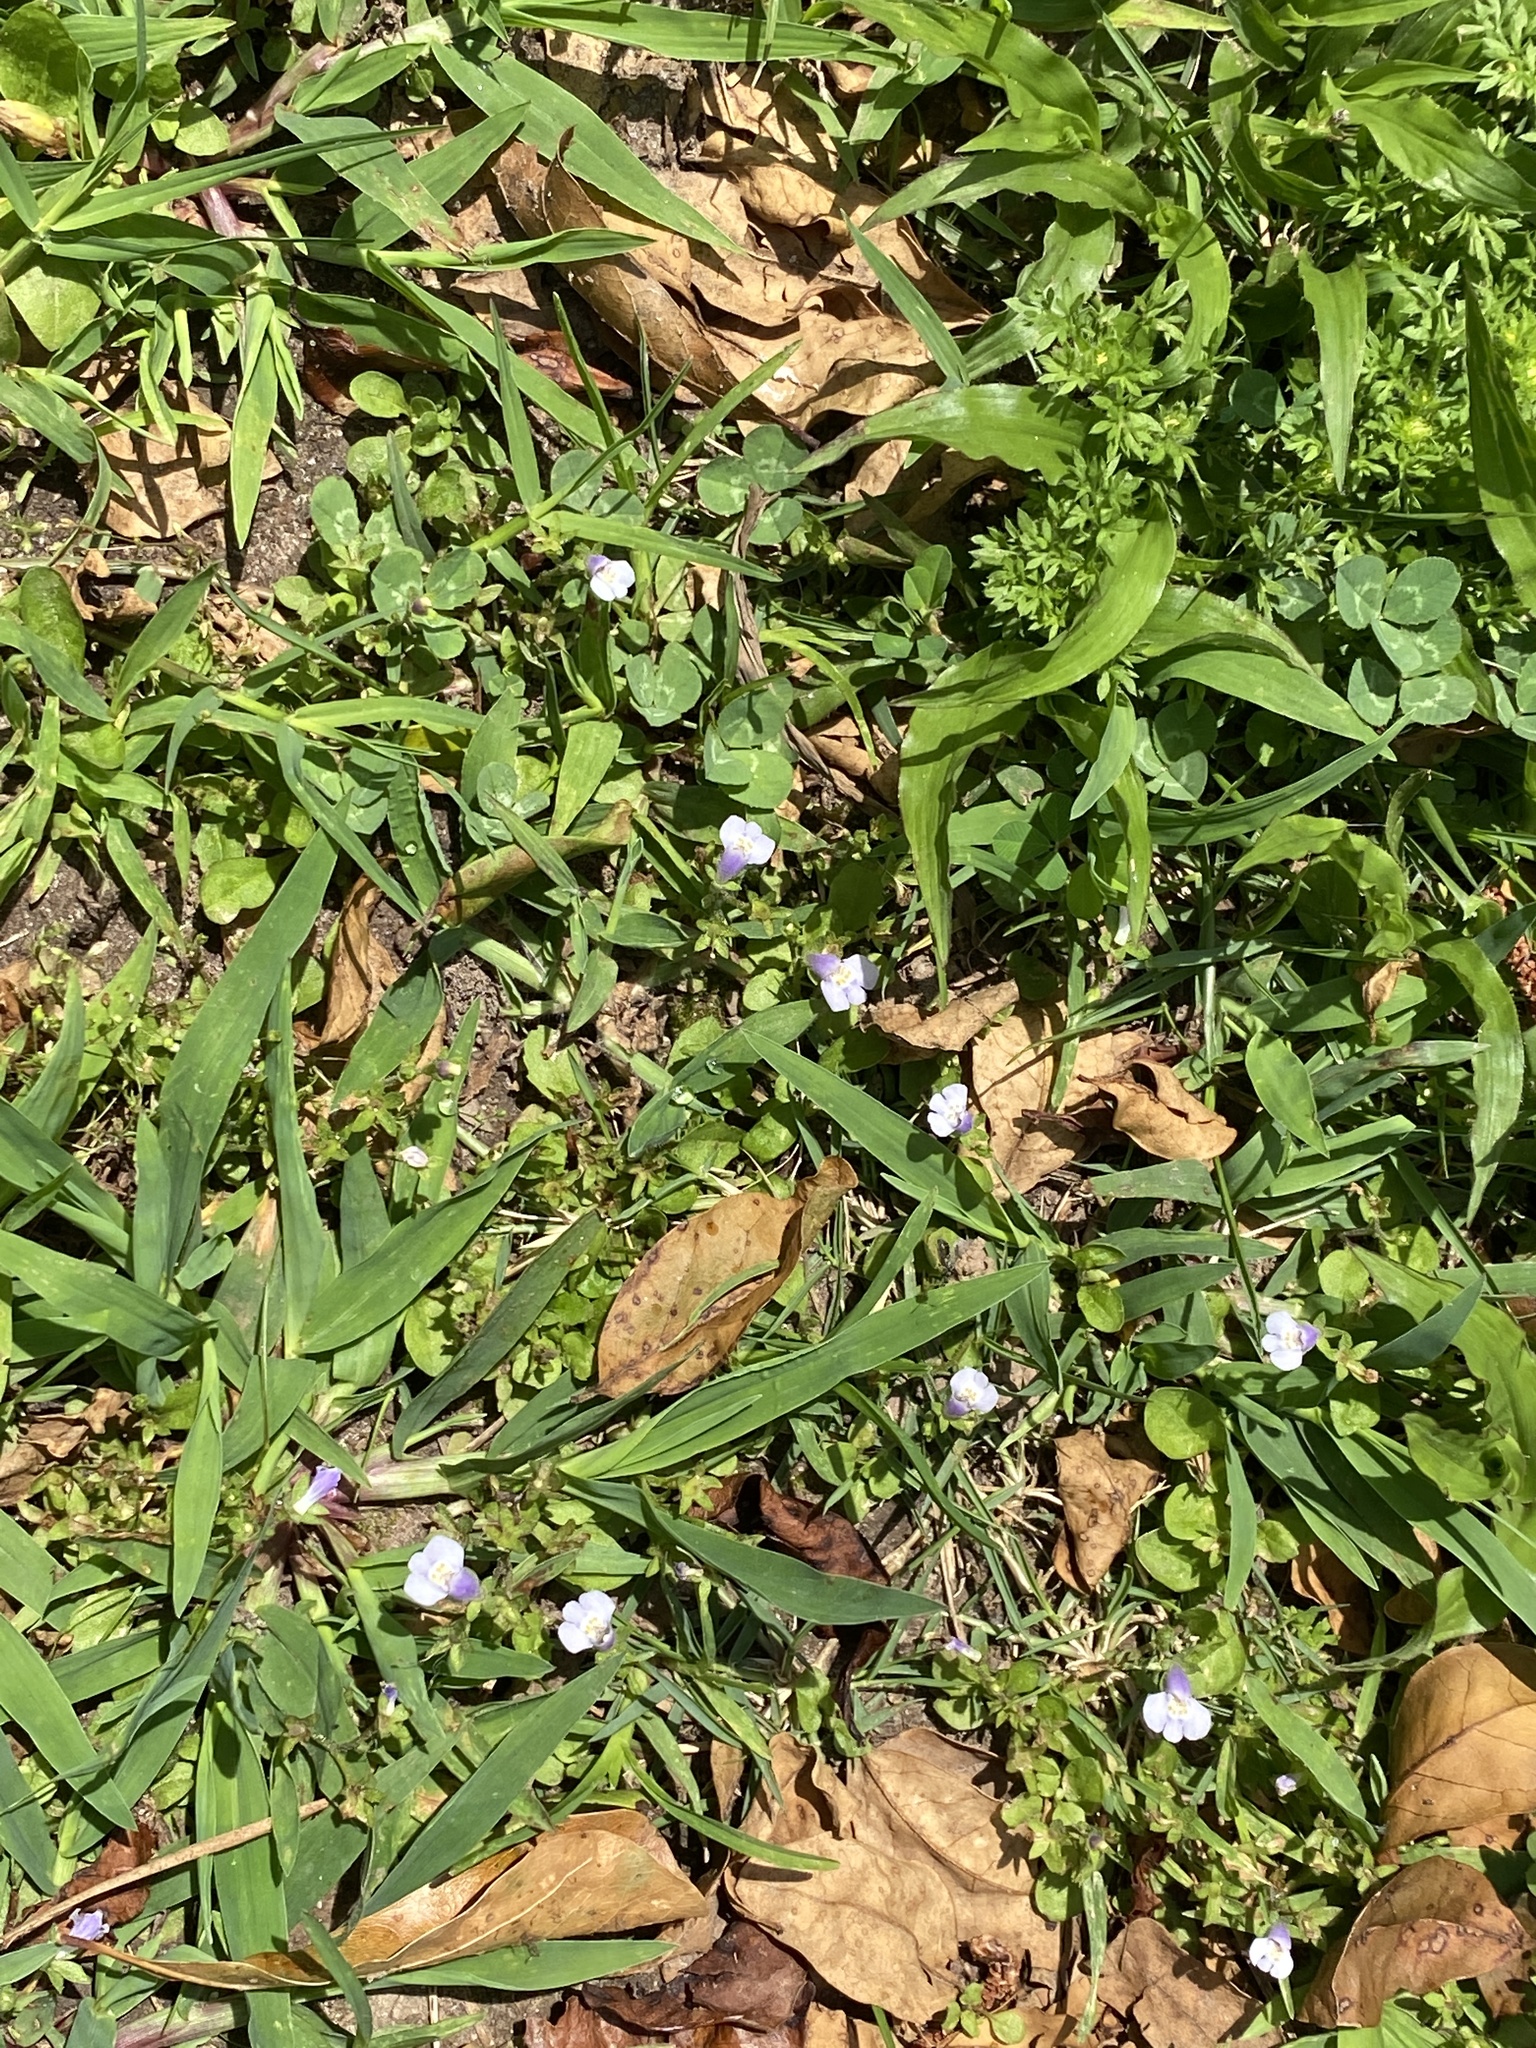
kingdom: Plantae
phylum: Tracheophyta
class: Magnoliopsida
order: Lamiales
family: Mazaceae
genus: Mazus
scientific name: Mazus pumilus
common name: Japanese mazus
